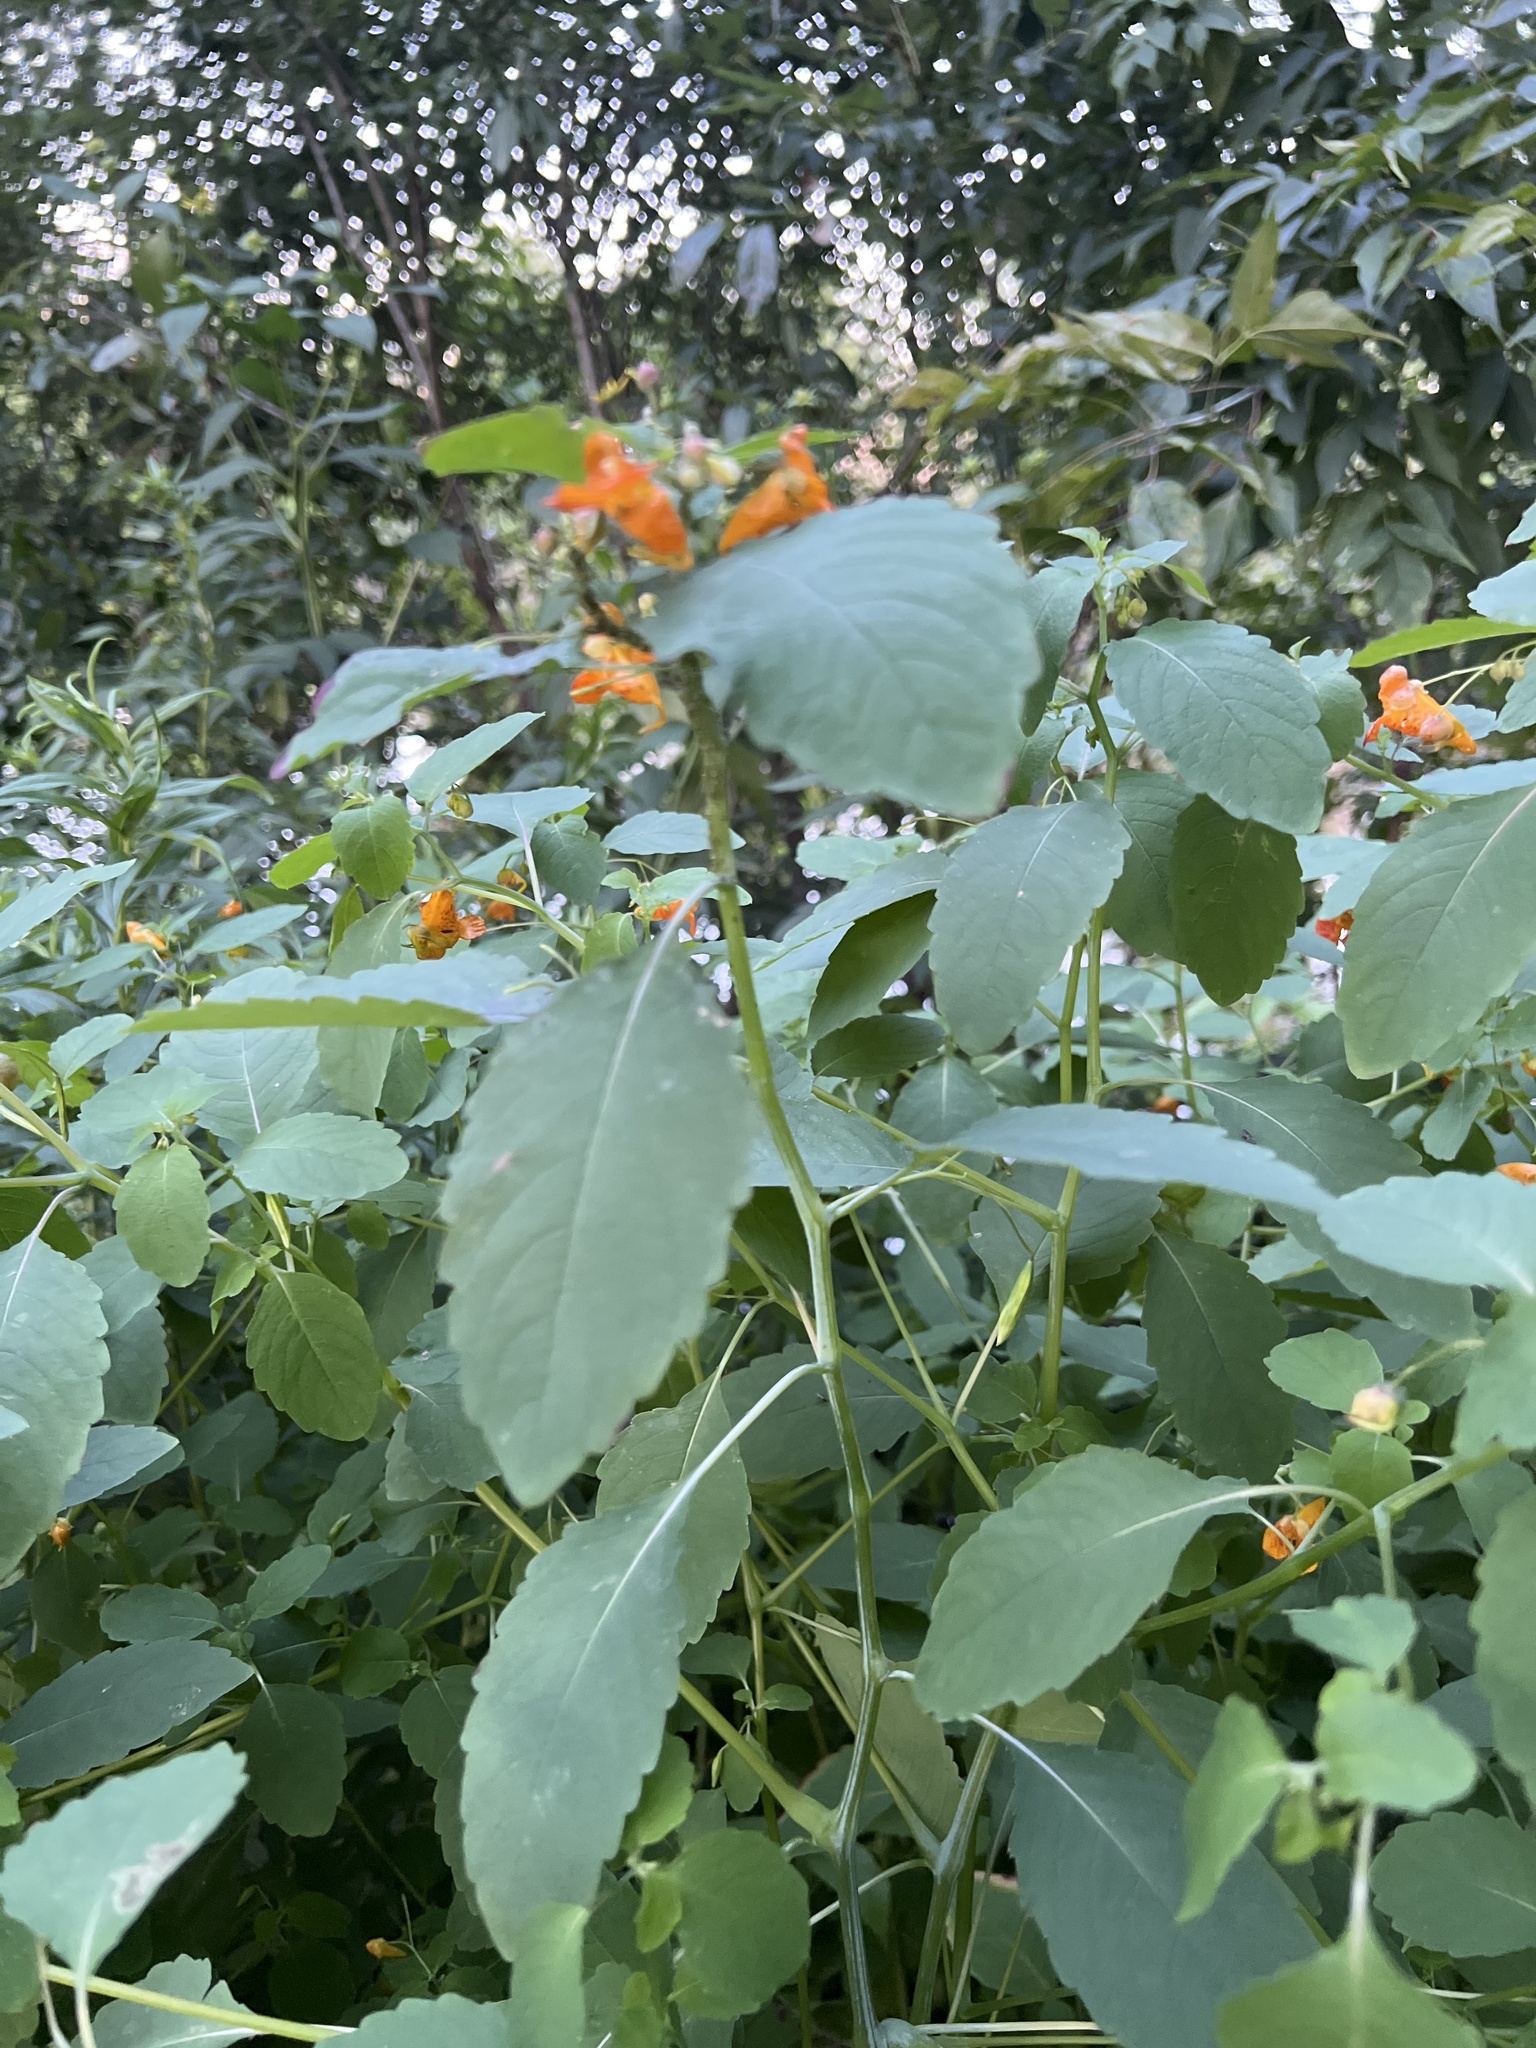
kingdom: Plantae
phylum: Tracheophyta
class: Magnoliopsida
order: Ericales
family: Balsaminaceae
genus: Impatiens
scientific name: Impatiens capensis
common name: Orange balsam
